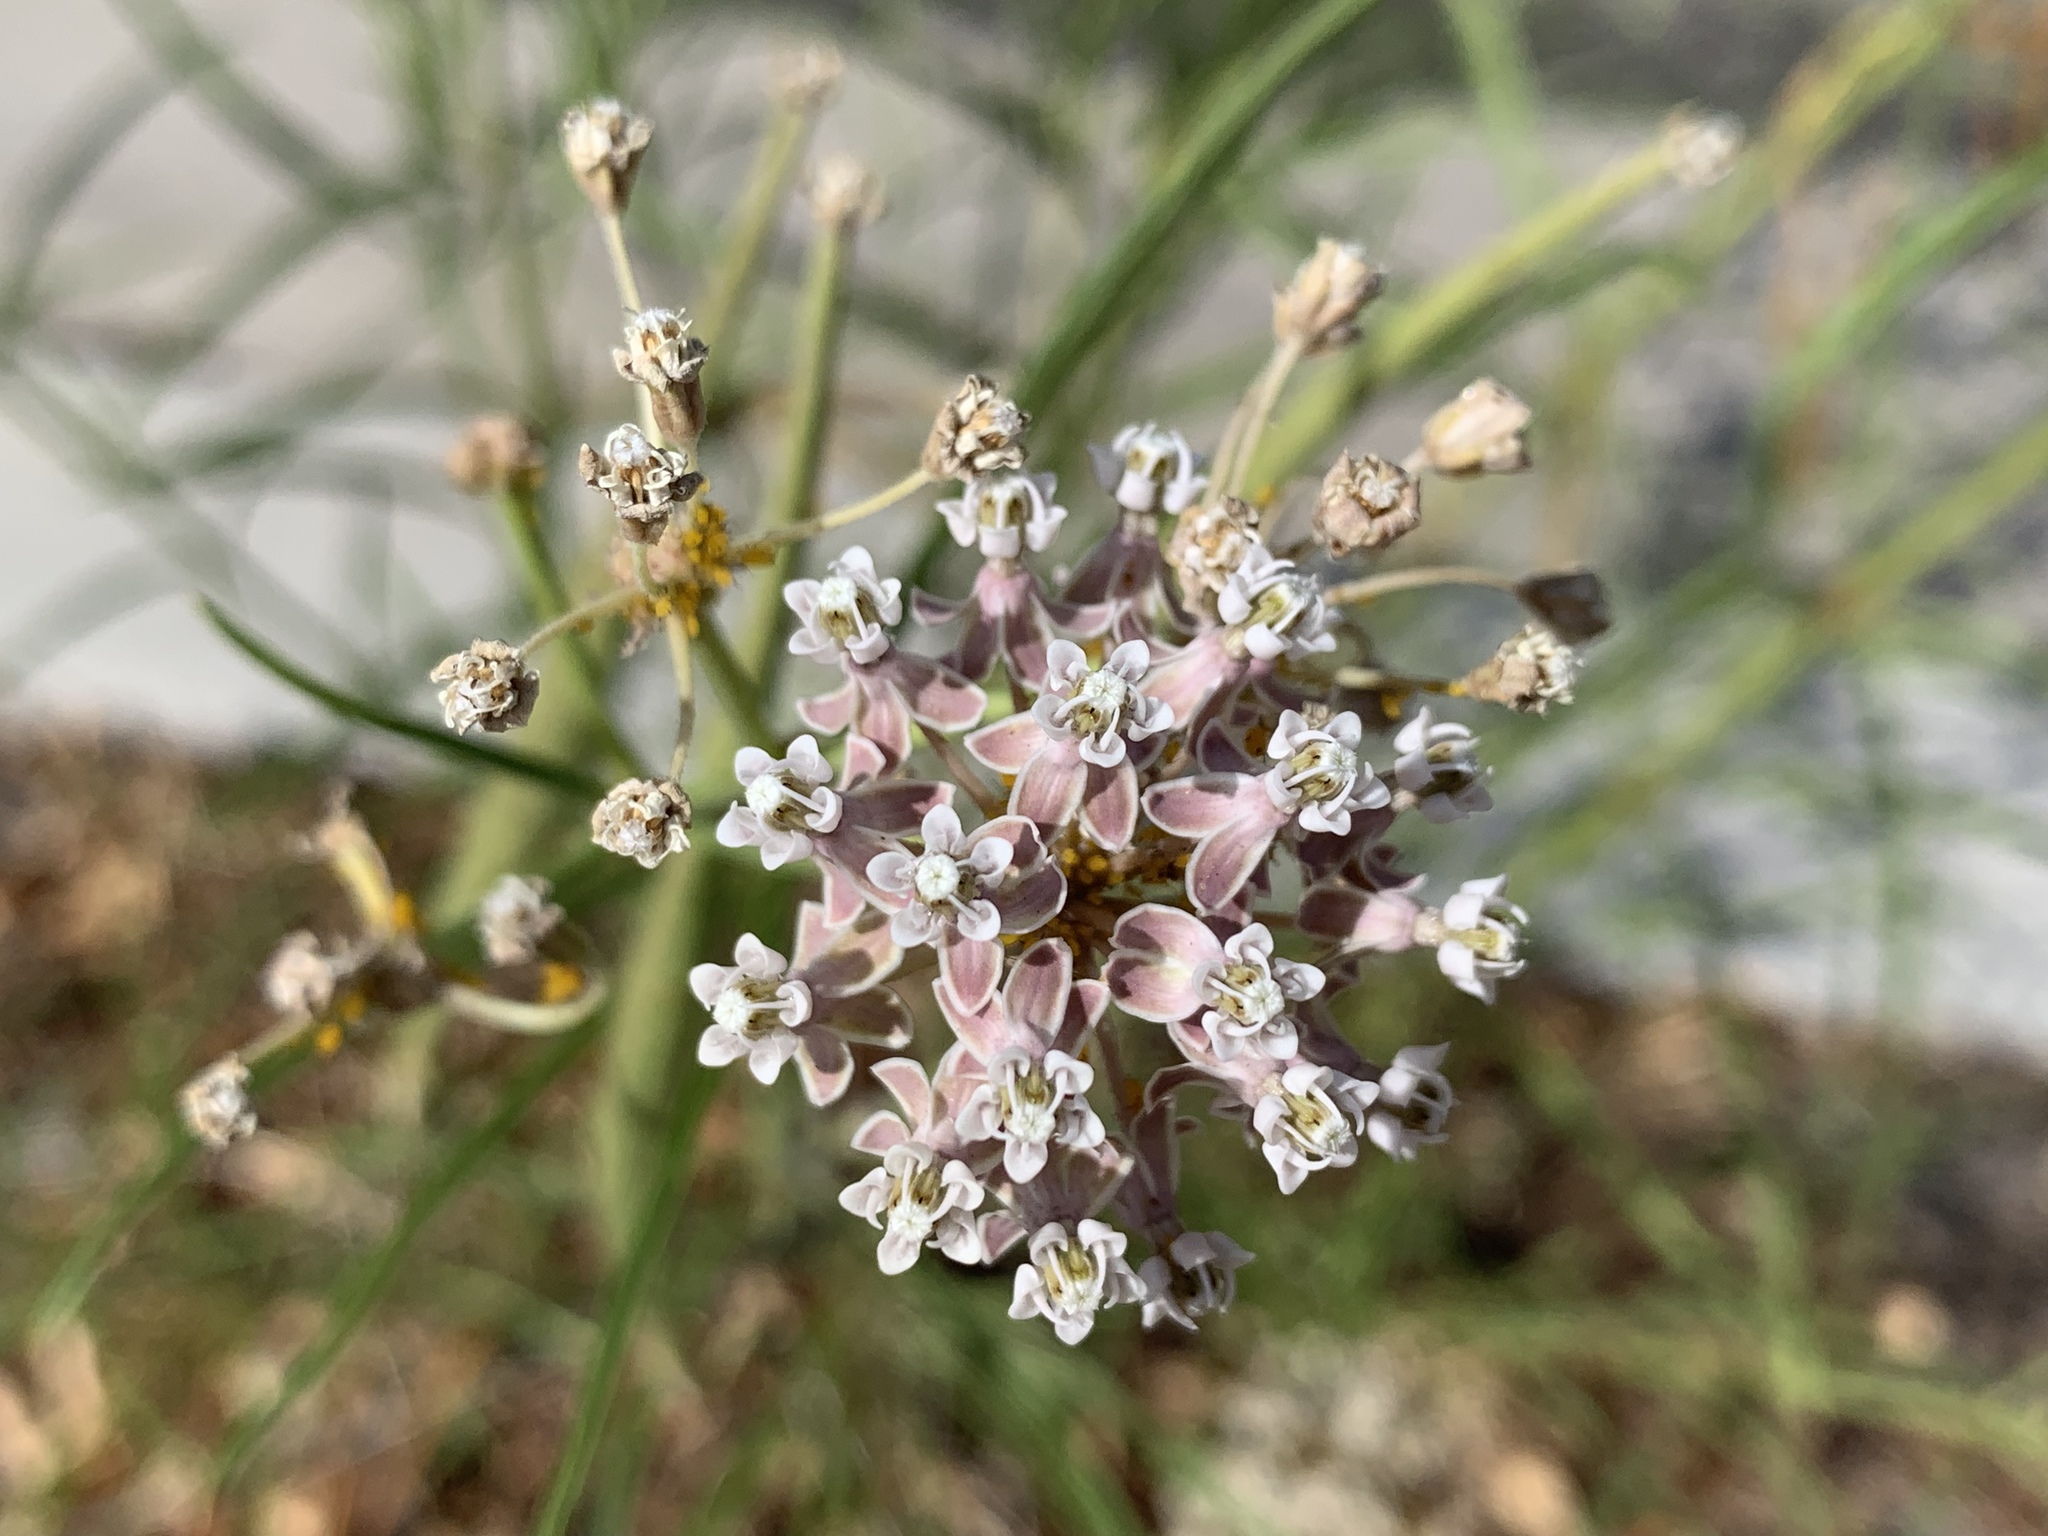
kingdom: Plantae
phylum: Tracheophyta
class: Magnoliopsida
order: Gentianales
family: Apocynaceae
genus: Asclepias
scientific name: Asclepias fascicularis
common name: Mexican milkweed
